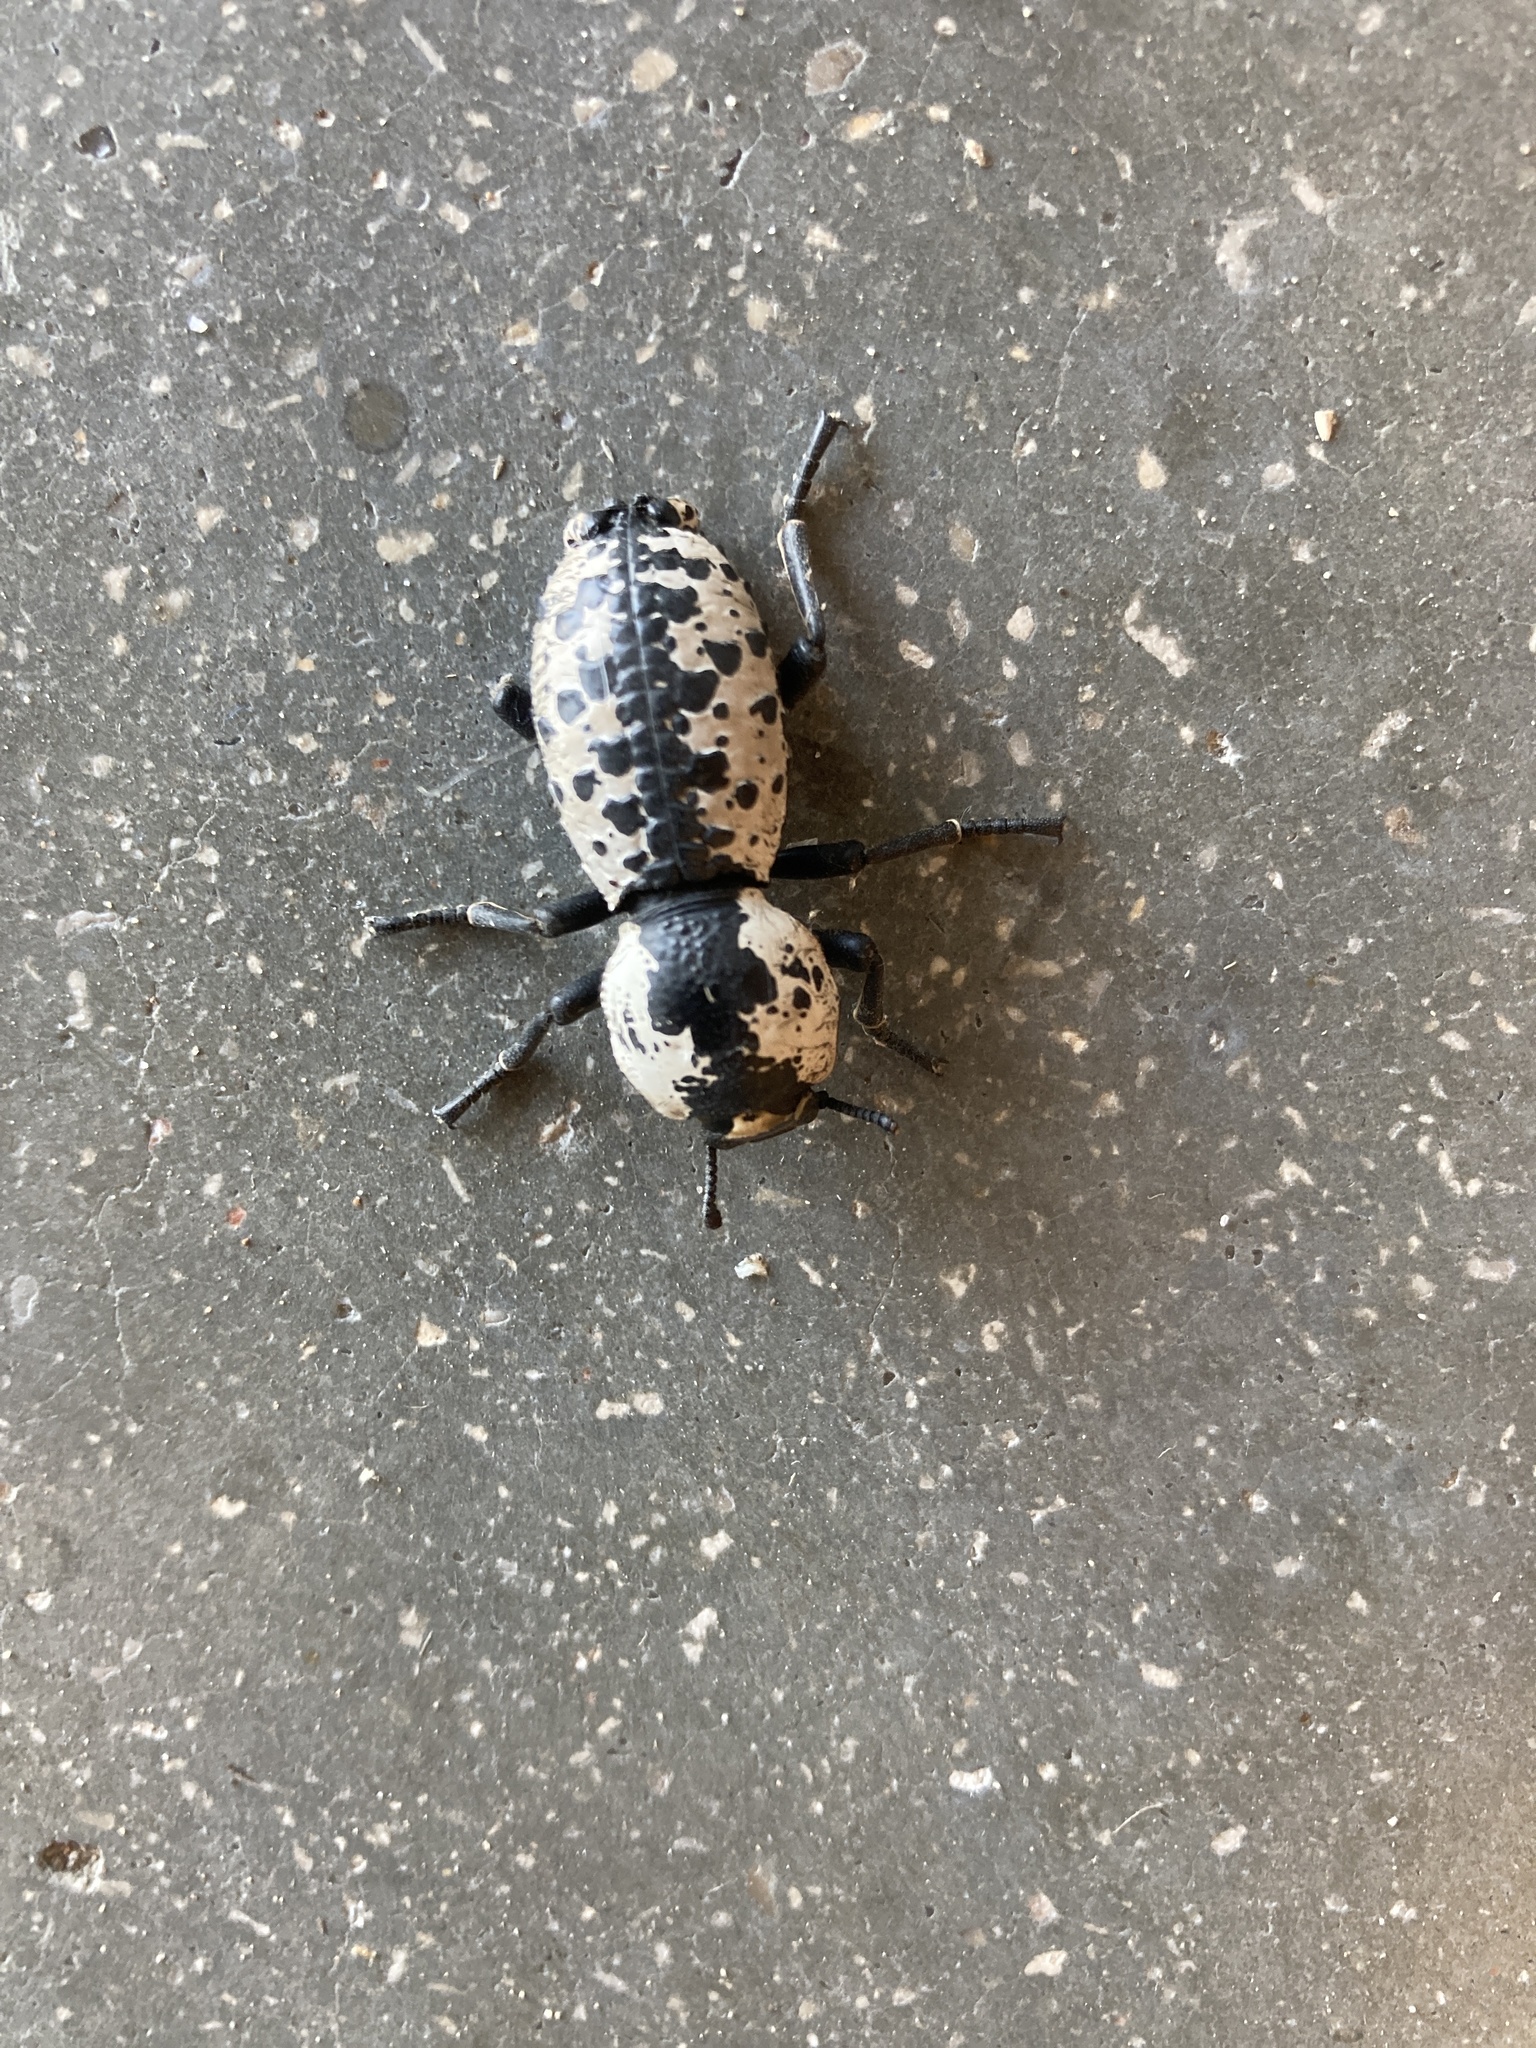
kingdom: Animalia
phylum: Arthropoda
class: Insecta
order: Coleoptera
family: Zopheridae
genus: Zopherus
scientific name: Zopherus nodulosus
